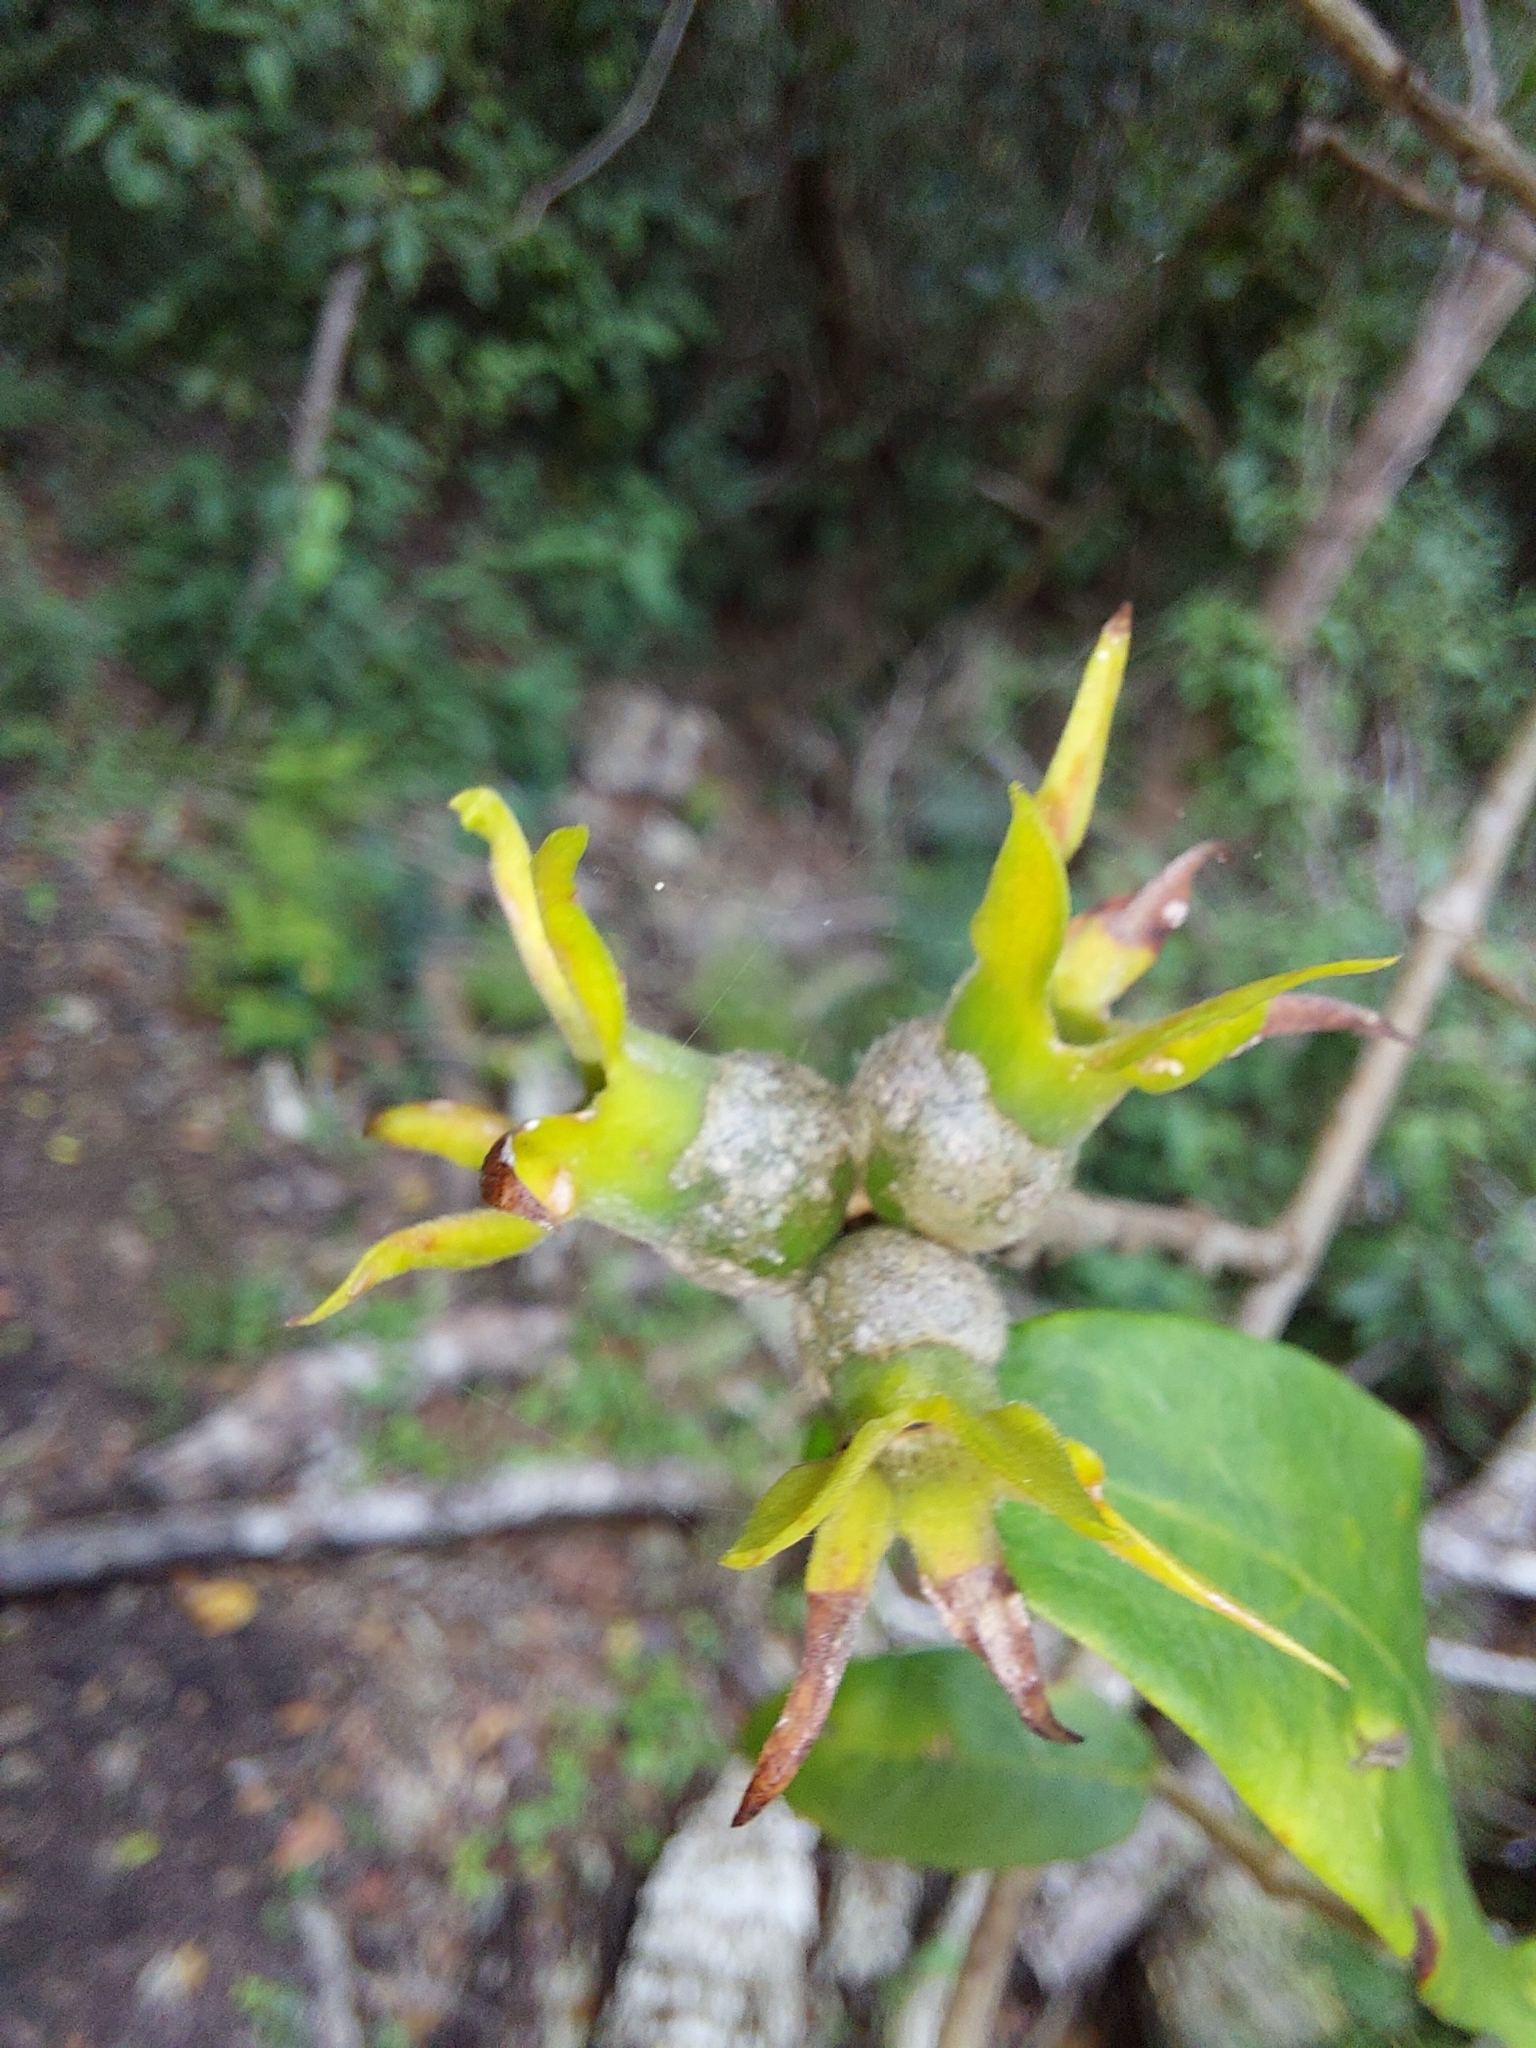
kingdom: Plantae
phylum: Tracheophyta
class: Magnoliopsida
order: Gentianales
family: Rubiaceae
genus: Burchellia
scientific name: Burchellia bubalina
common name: Wild pomegranate
